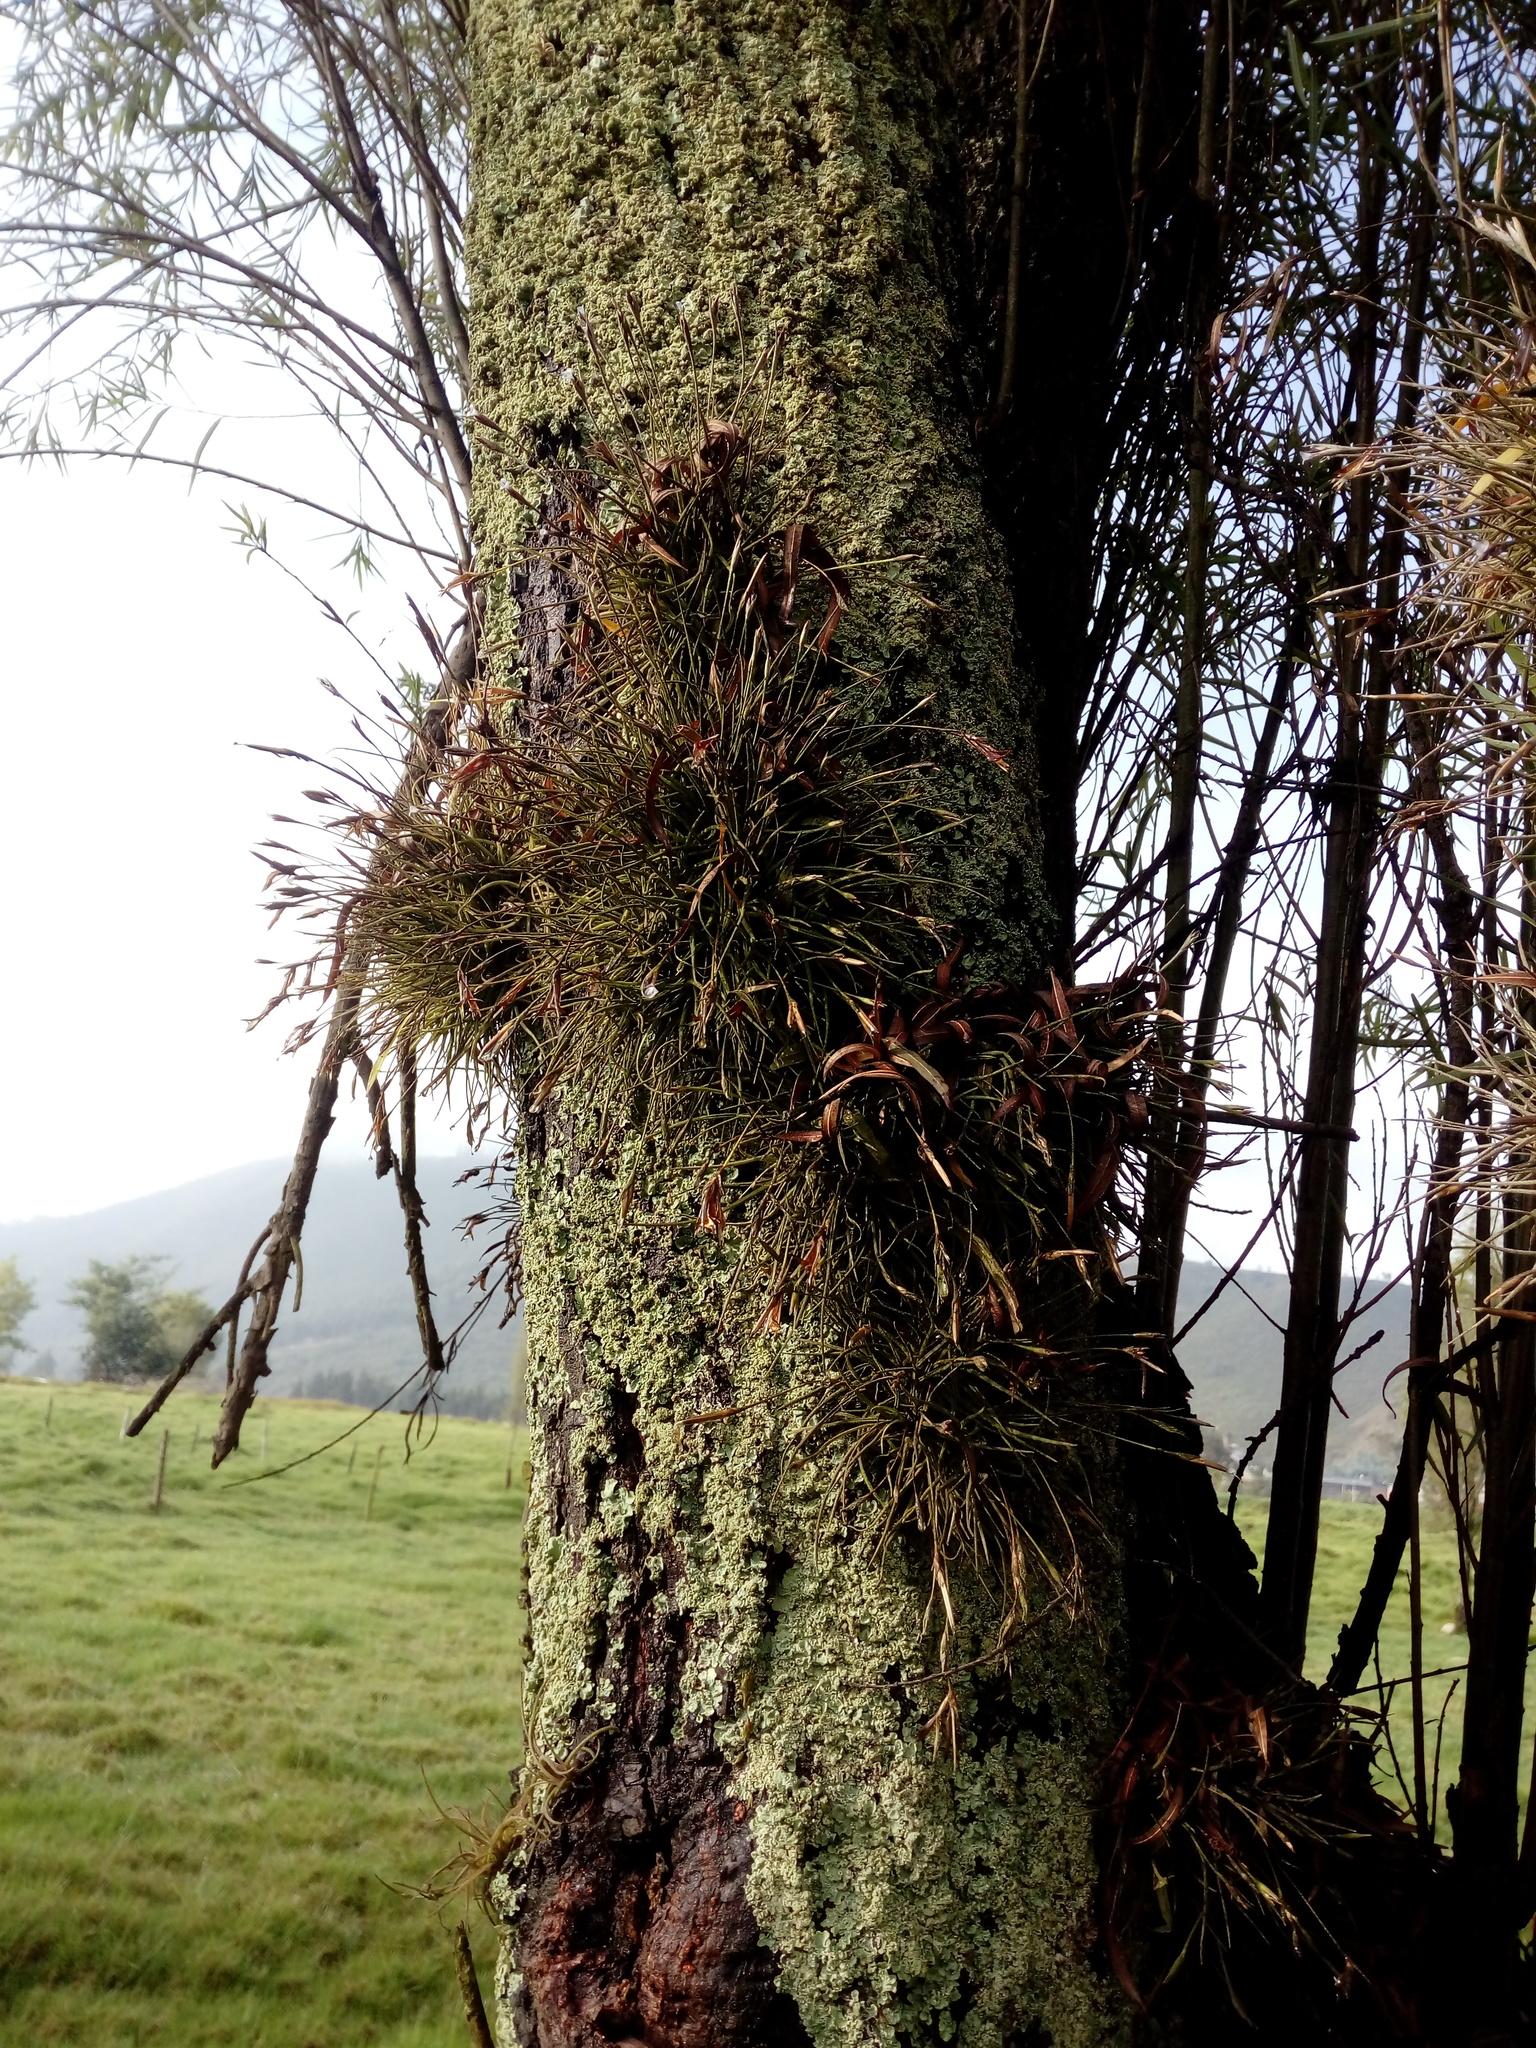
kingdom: Plantae
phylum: Tracheophyta
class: Liliopsida
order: Poales
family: Bromeliaceae
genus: Tillandsia
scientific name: Tillandsia recurvata
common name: Small ballmoss
